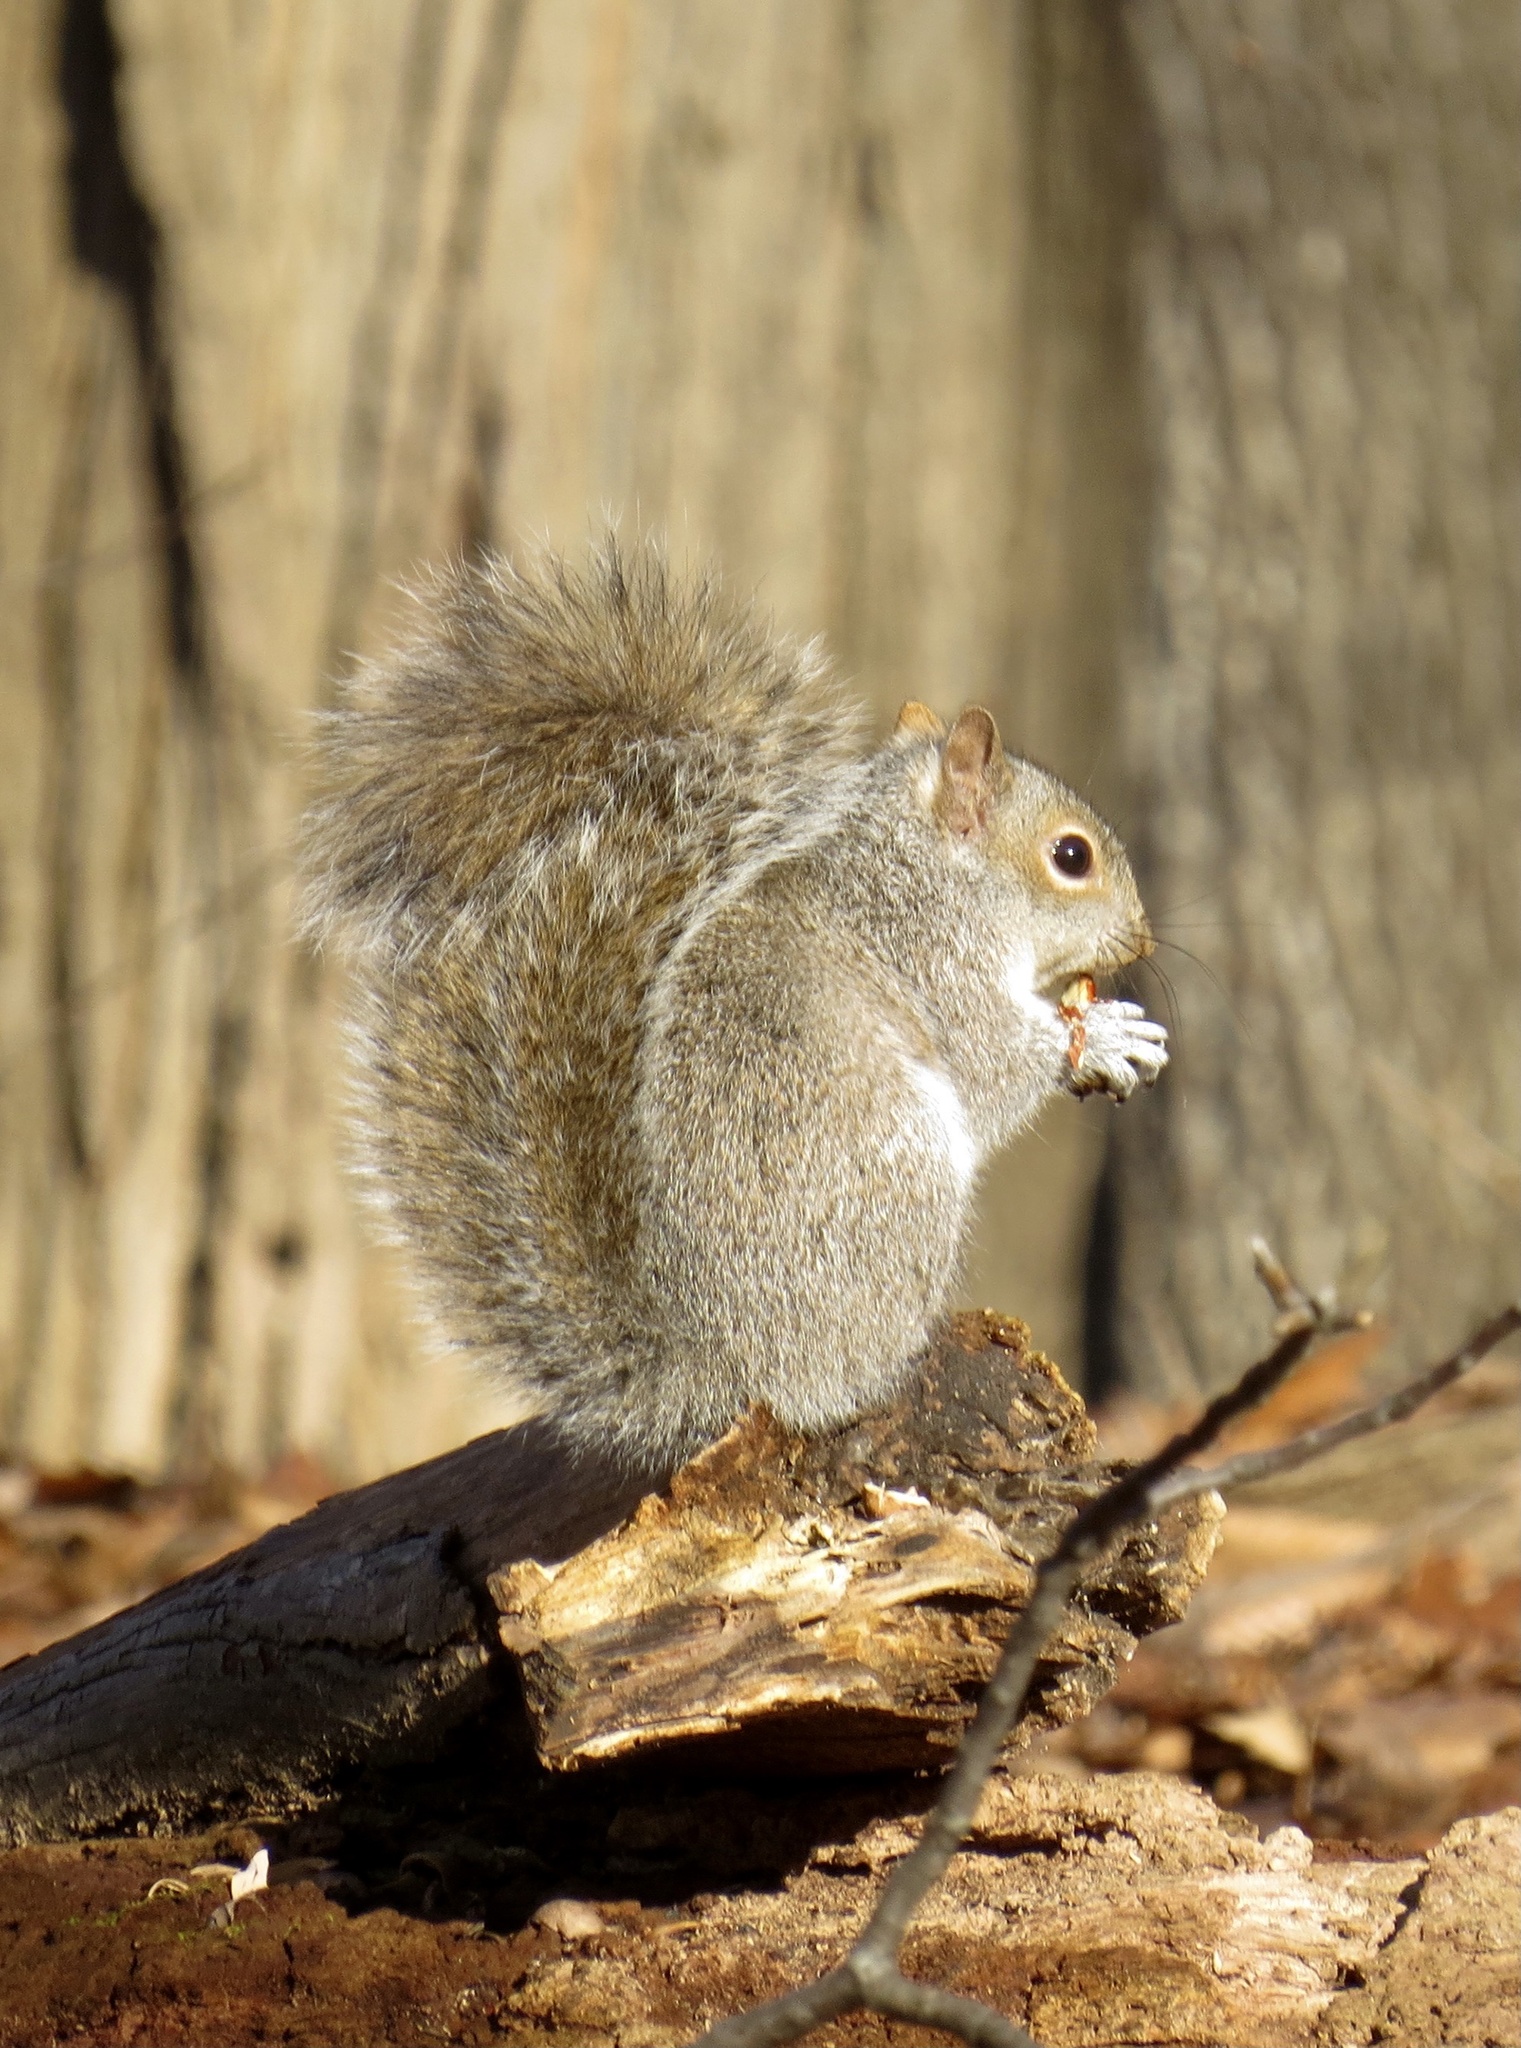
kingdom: Animalia
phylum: Chordata
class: Mammalia
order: Rodentia
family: Sciuridae
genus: Sciurus
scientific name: Sciurus carolinensis
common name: Eastern gray squirrel
